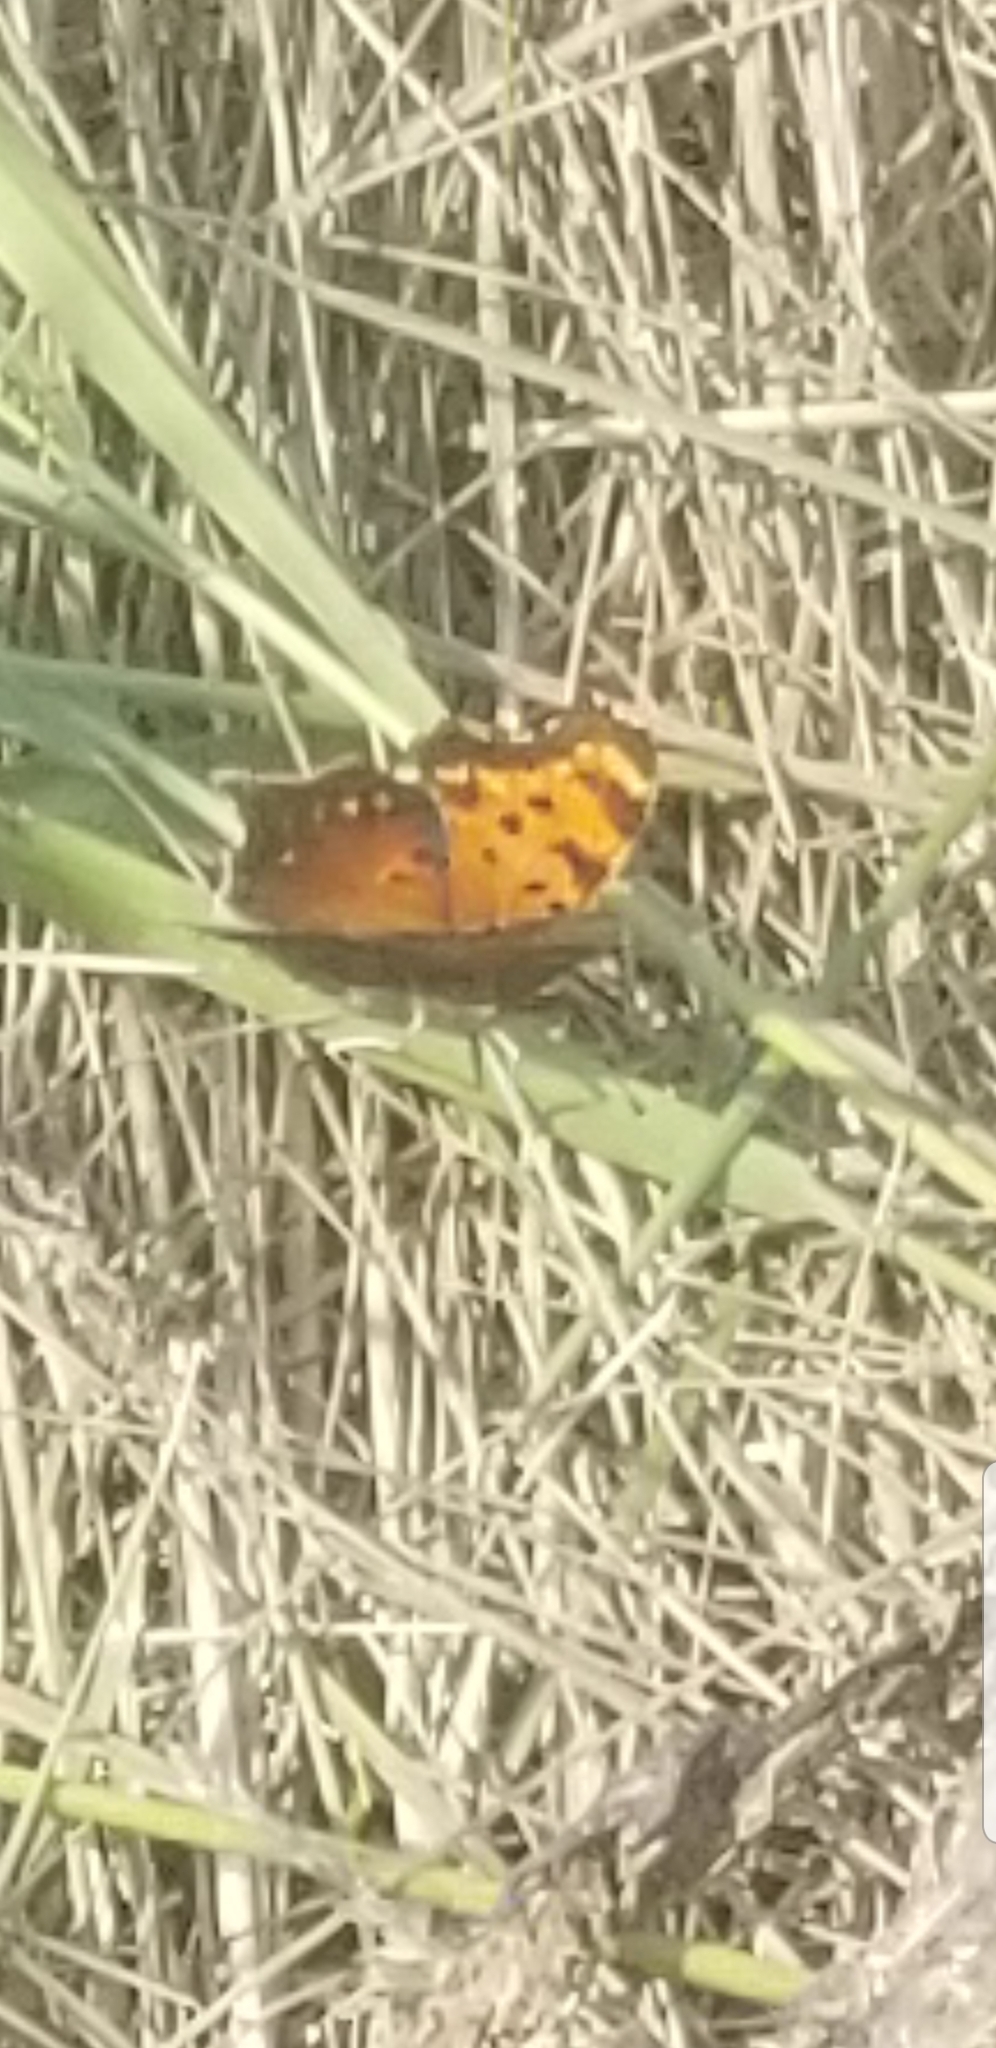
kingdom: Animalia
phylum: Arthropoda
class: Insecta
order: Lepidoptera
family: Nymphalidae
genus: Polygonia
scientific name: Polygonia progne
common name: Gray comma
